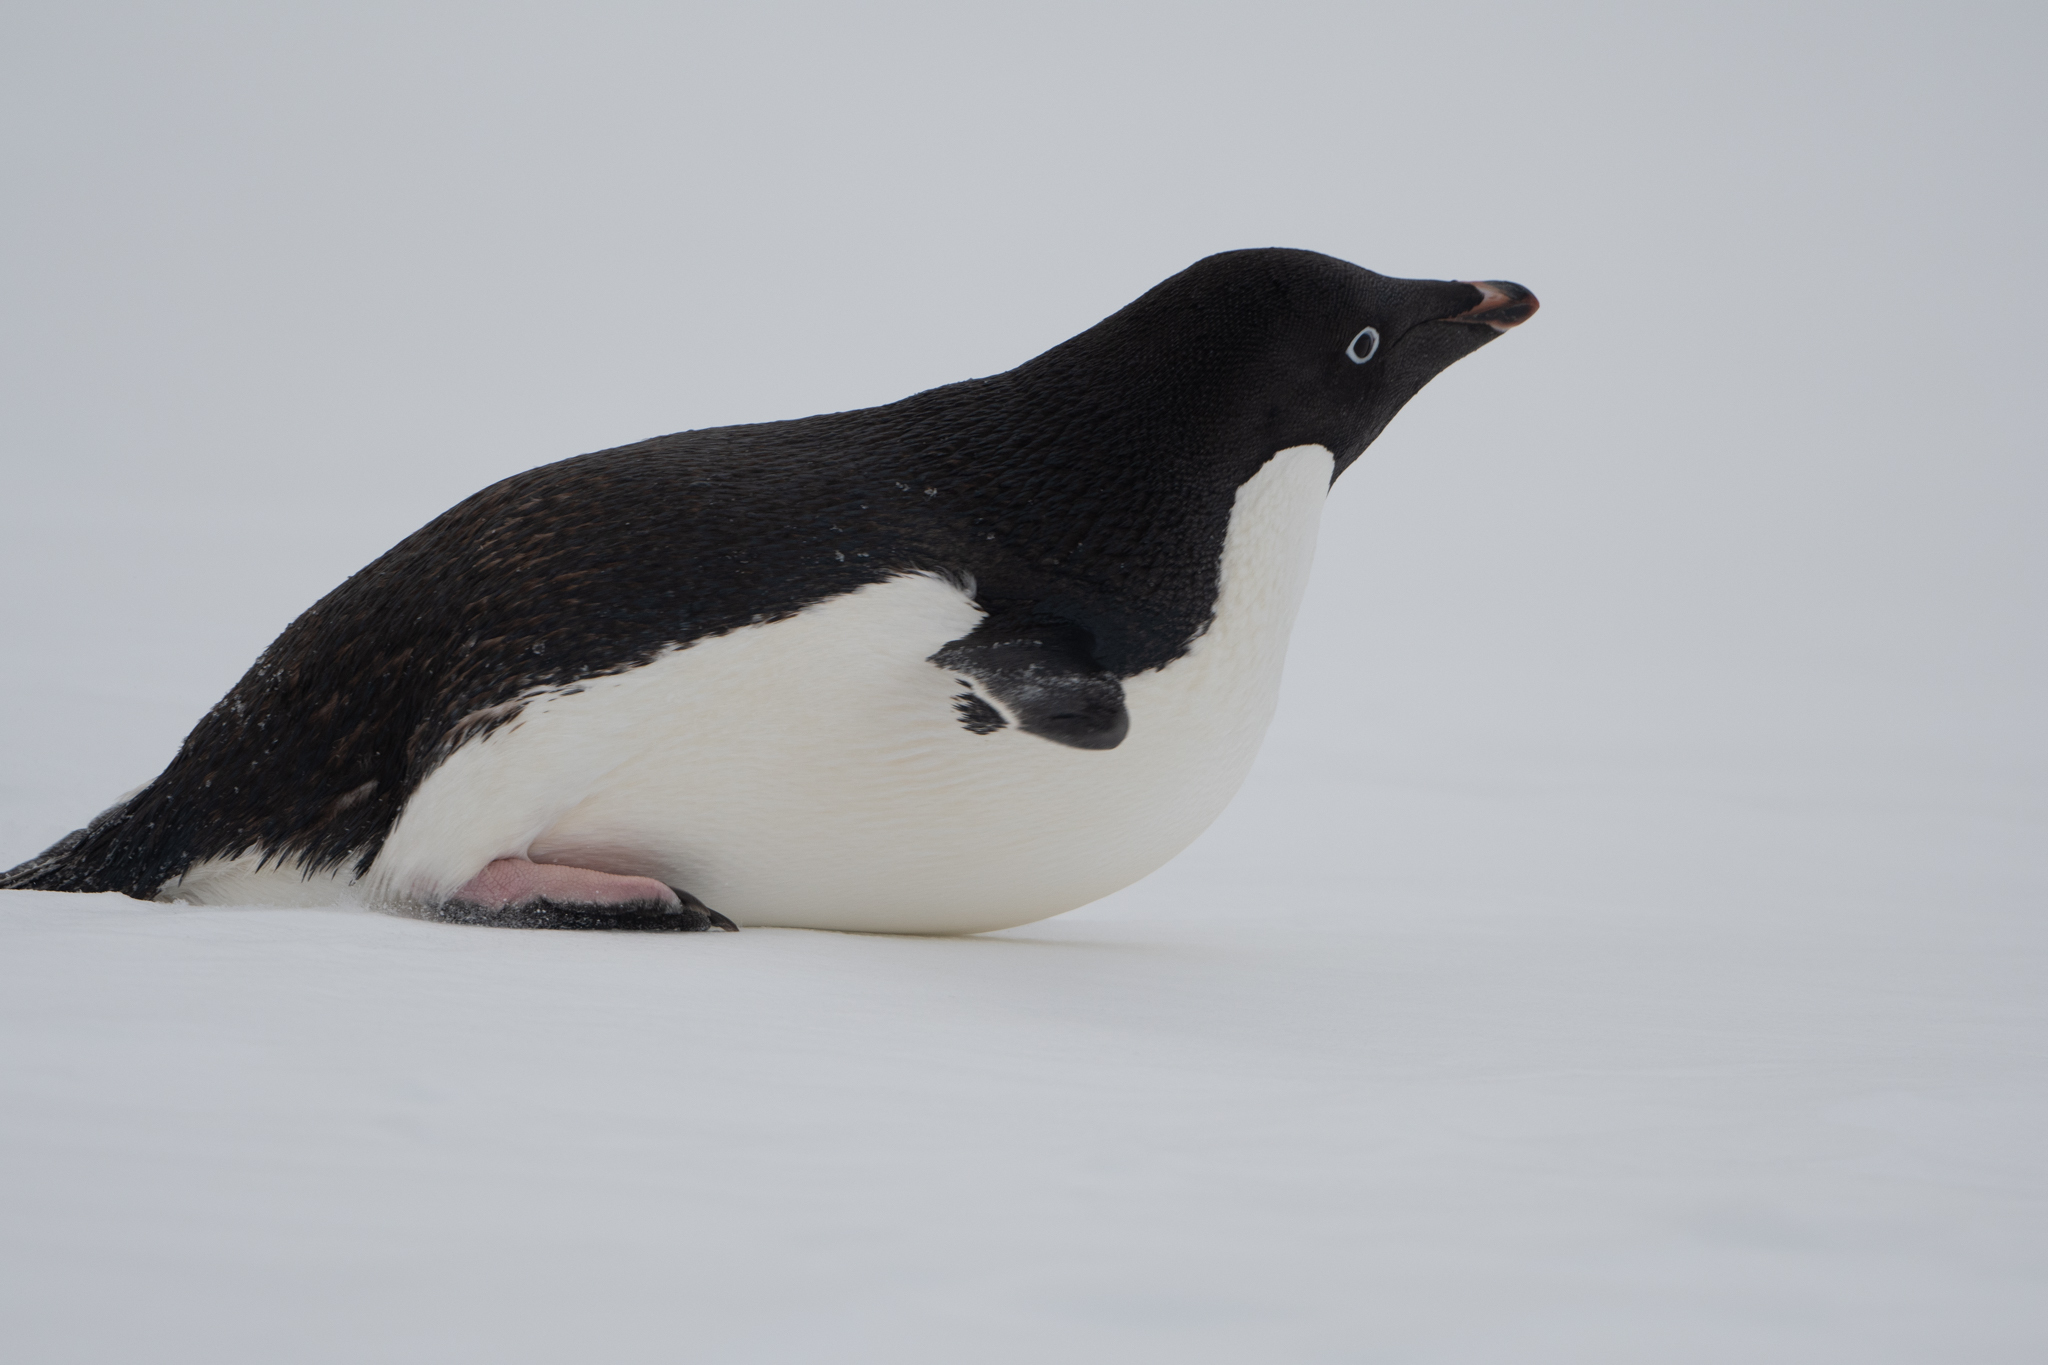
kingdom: Animalia
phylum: Chordata
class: Aves
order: Sphenisciformes
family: Spheniscidae
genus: Pygoscelis
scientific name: Pygoscelis adeliae
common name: Adelie penguin
